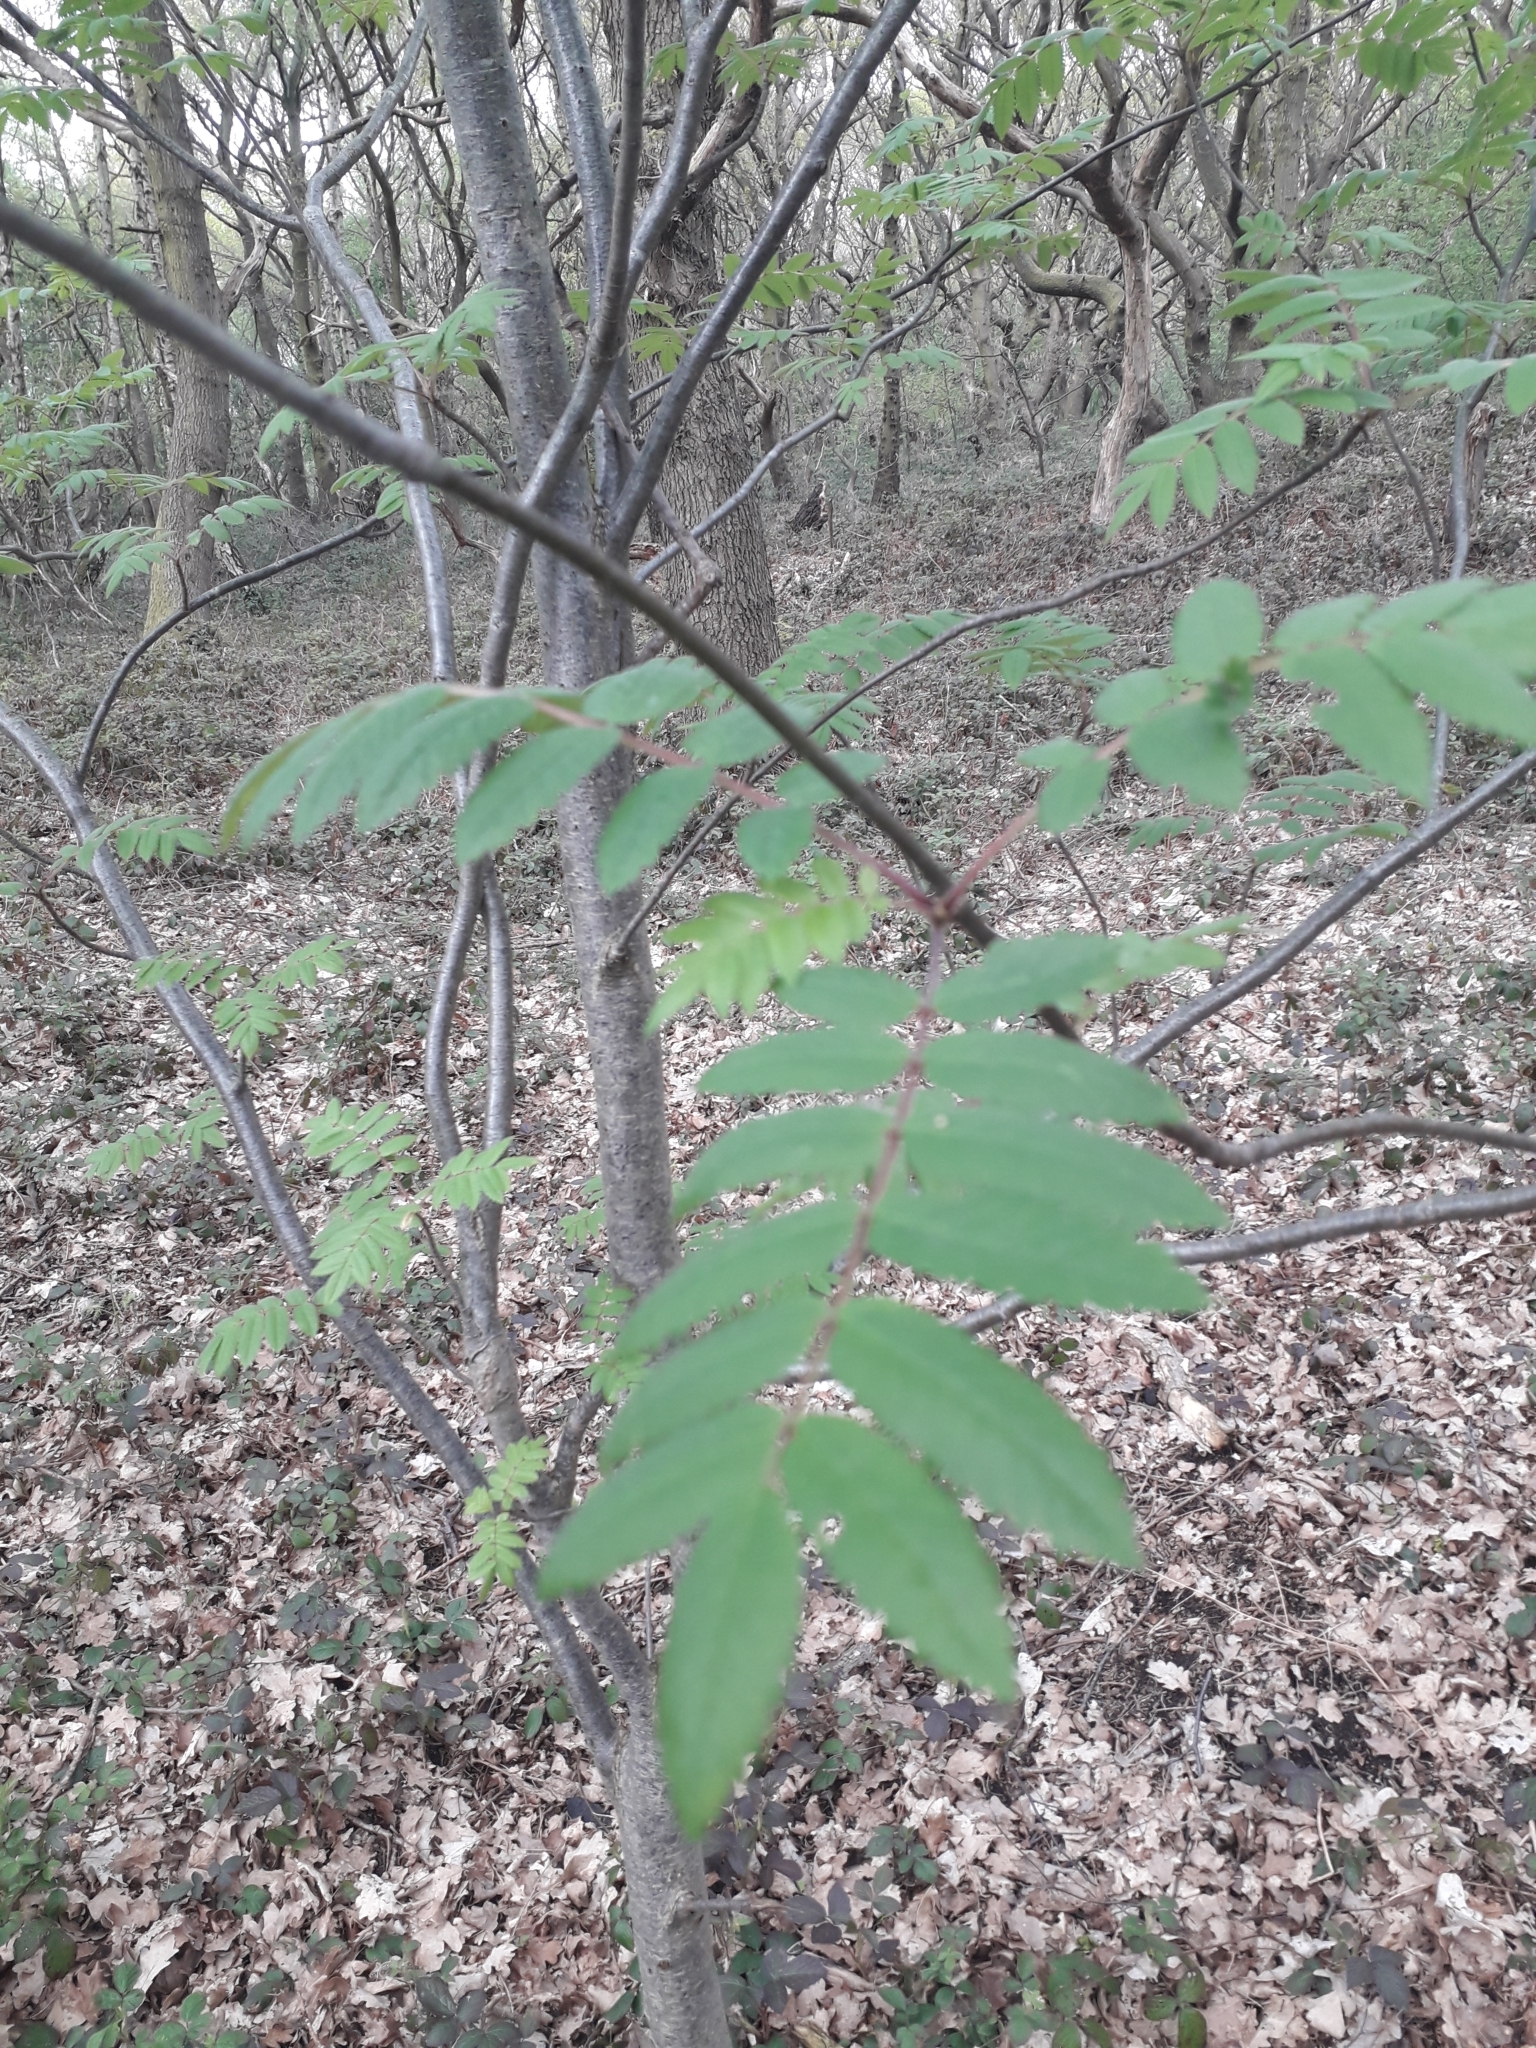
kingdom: Plantae
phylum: Tracheophyta
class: Magnoliopsida
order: Rosales
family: Rosaceae
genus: Sorbus
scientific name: Sorbus aucuparia
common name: Rowan
